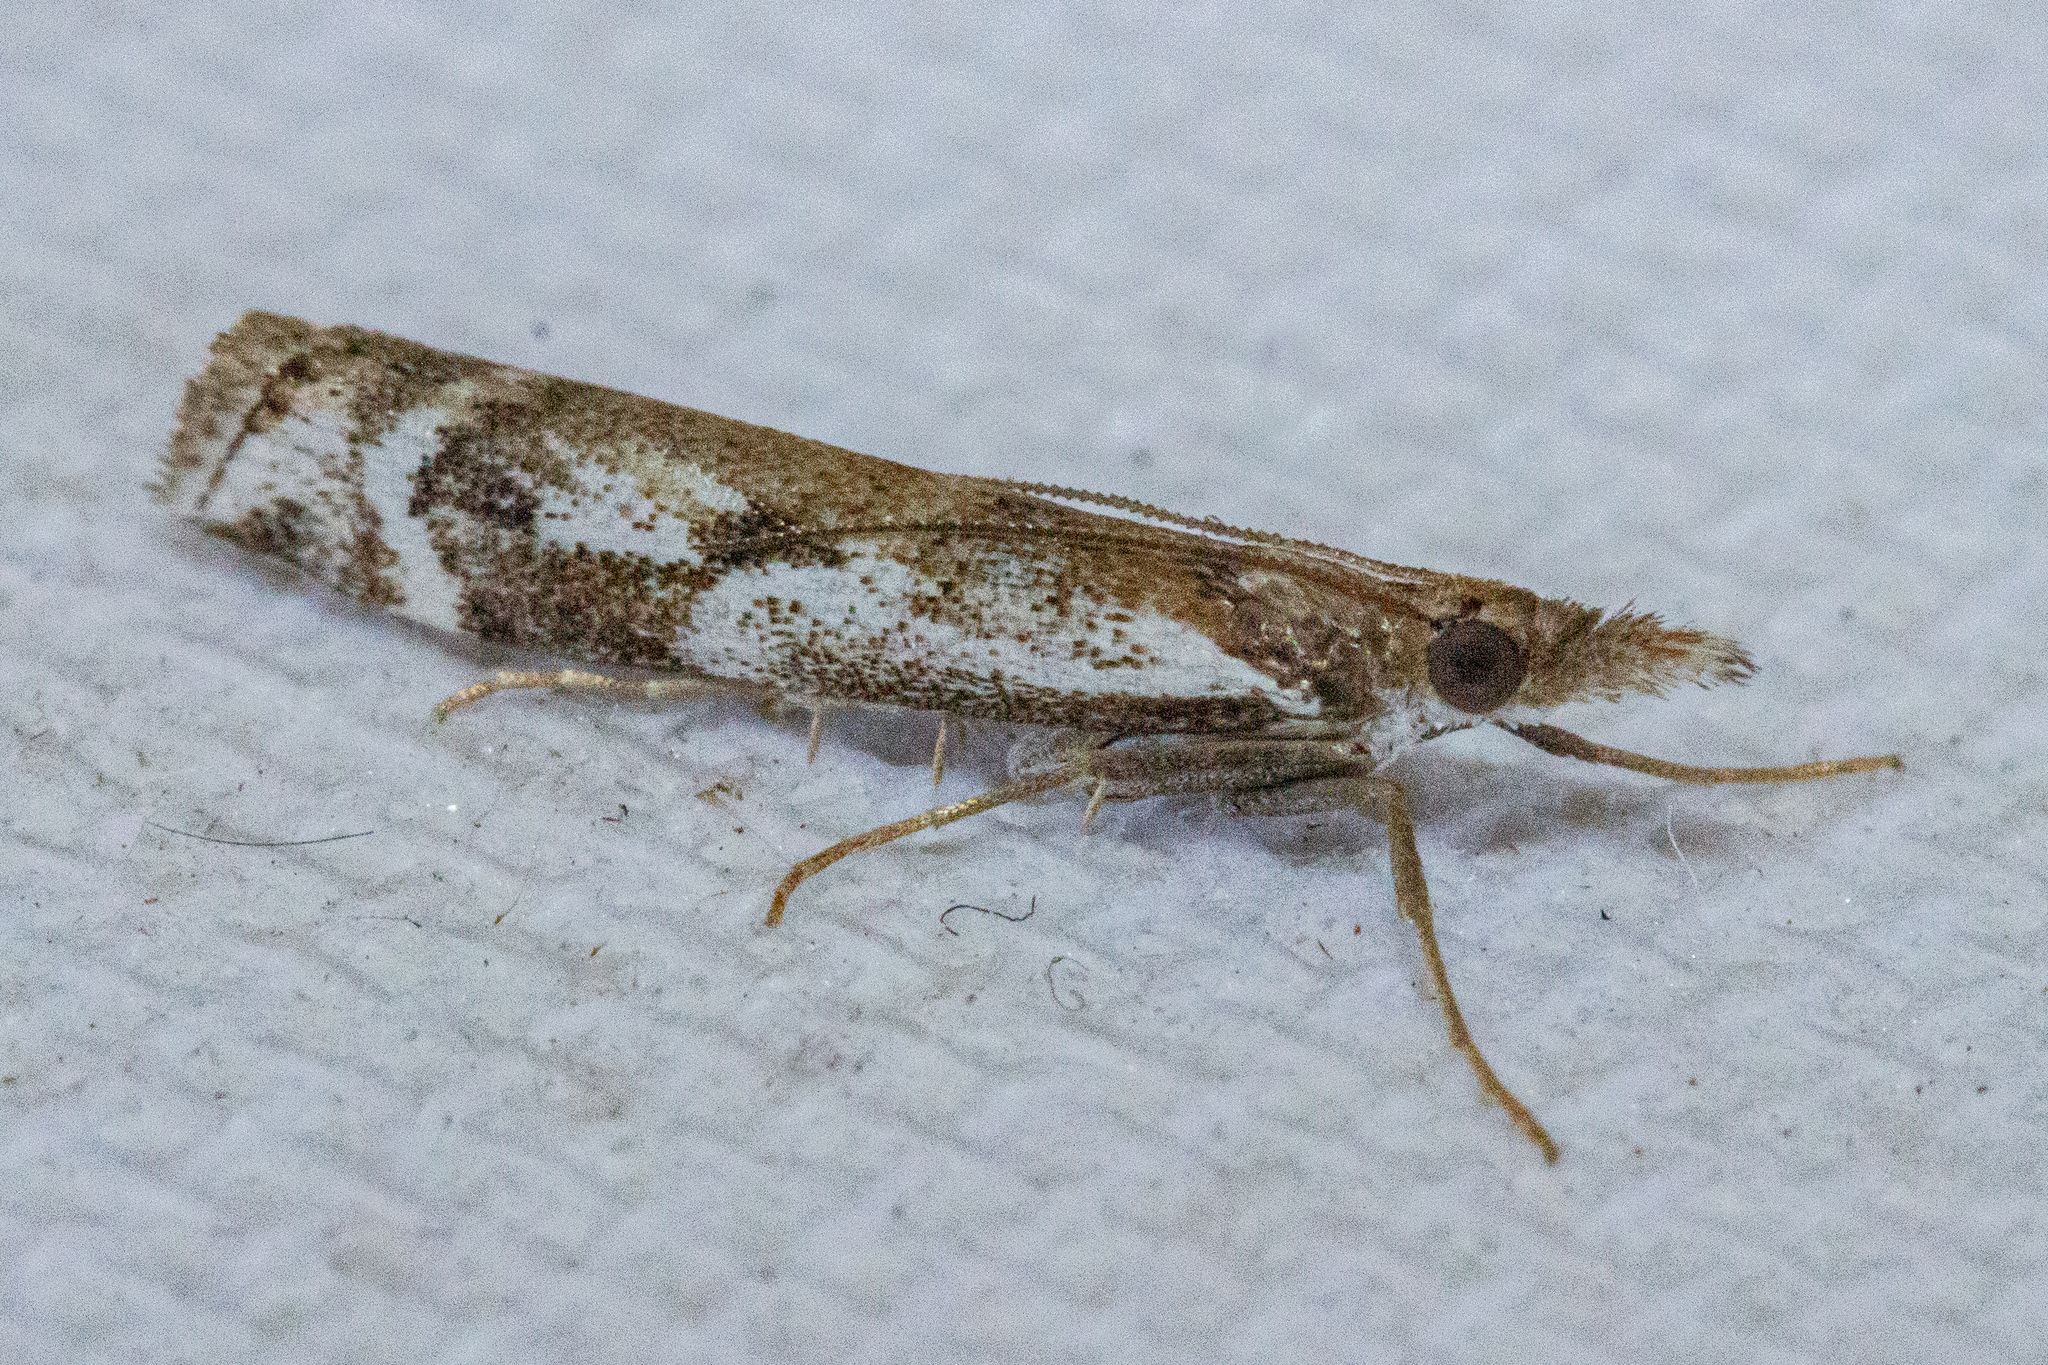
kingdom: Animalia
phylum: Arthropoda
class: Insecta
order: Lepidoptera
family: Crambidae
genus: Orocrambus
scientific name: Orocrambus vulgaris
